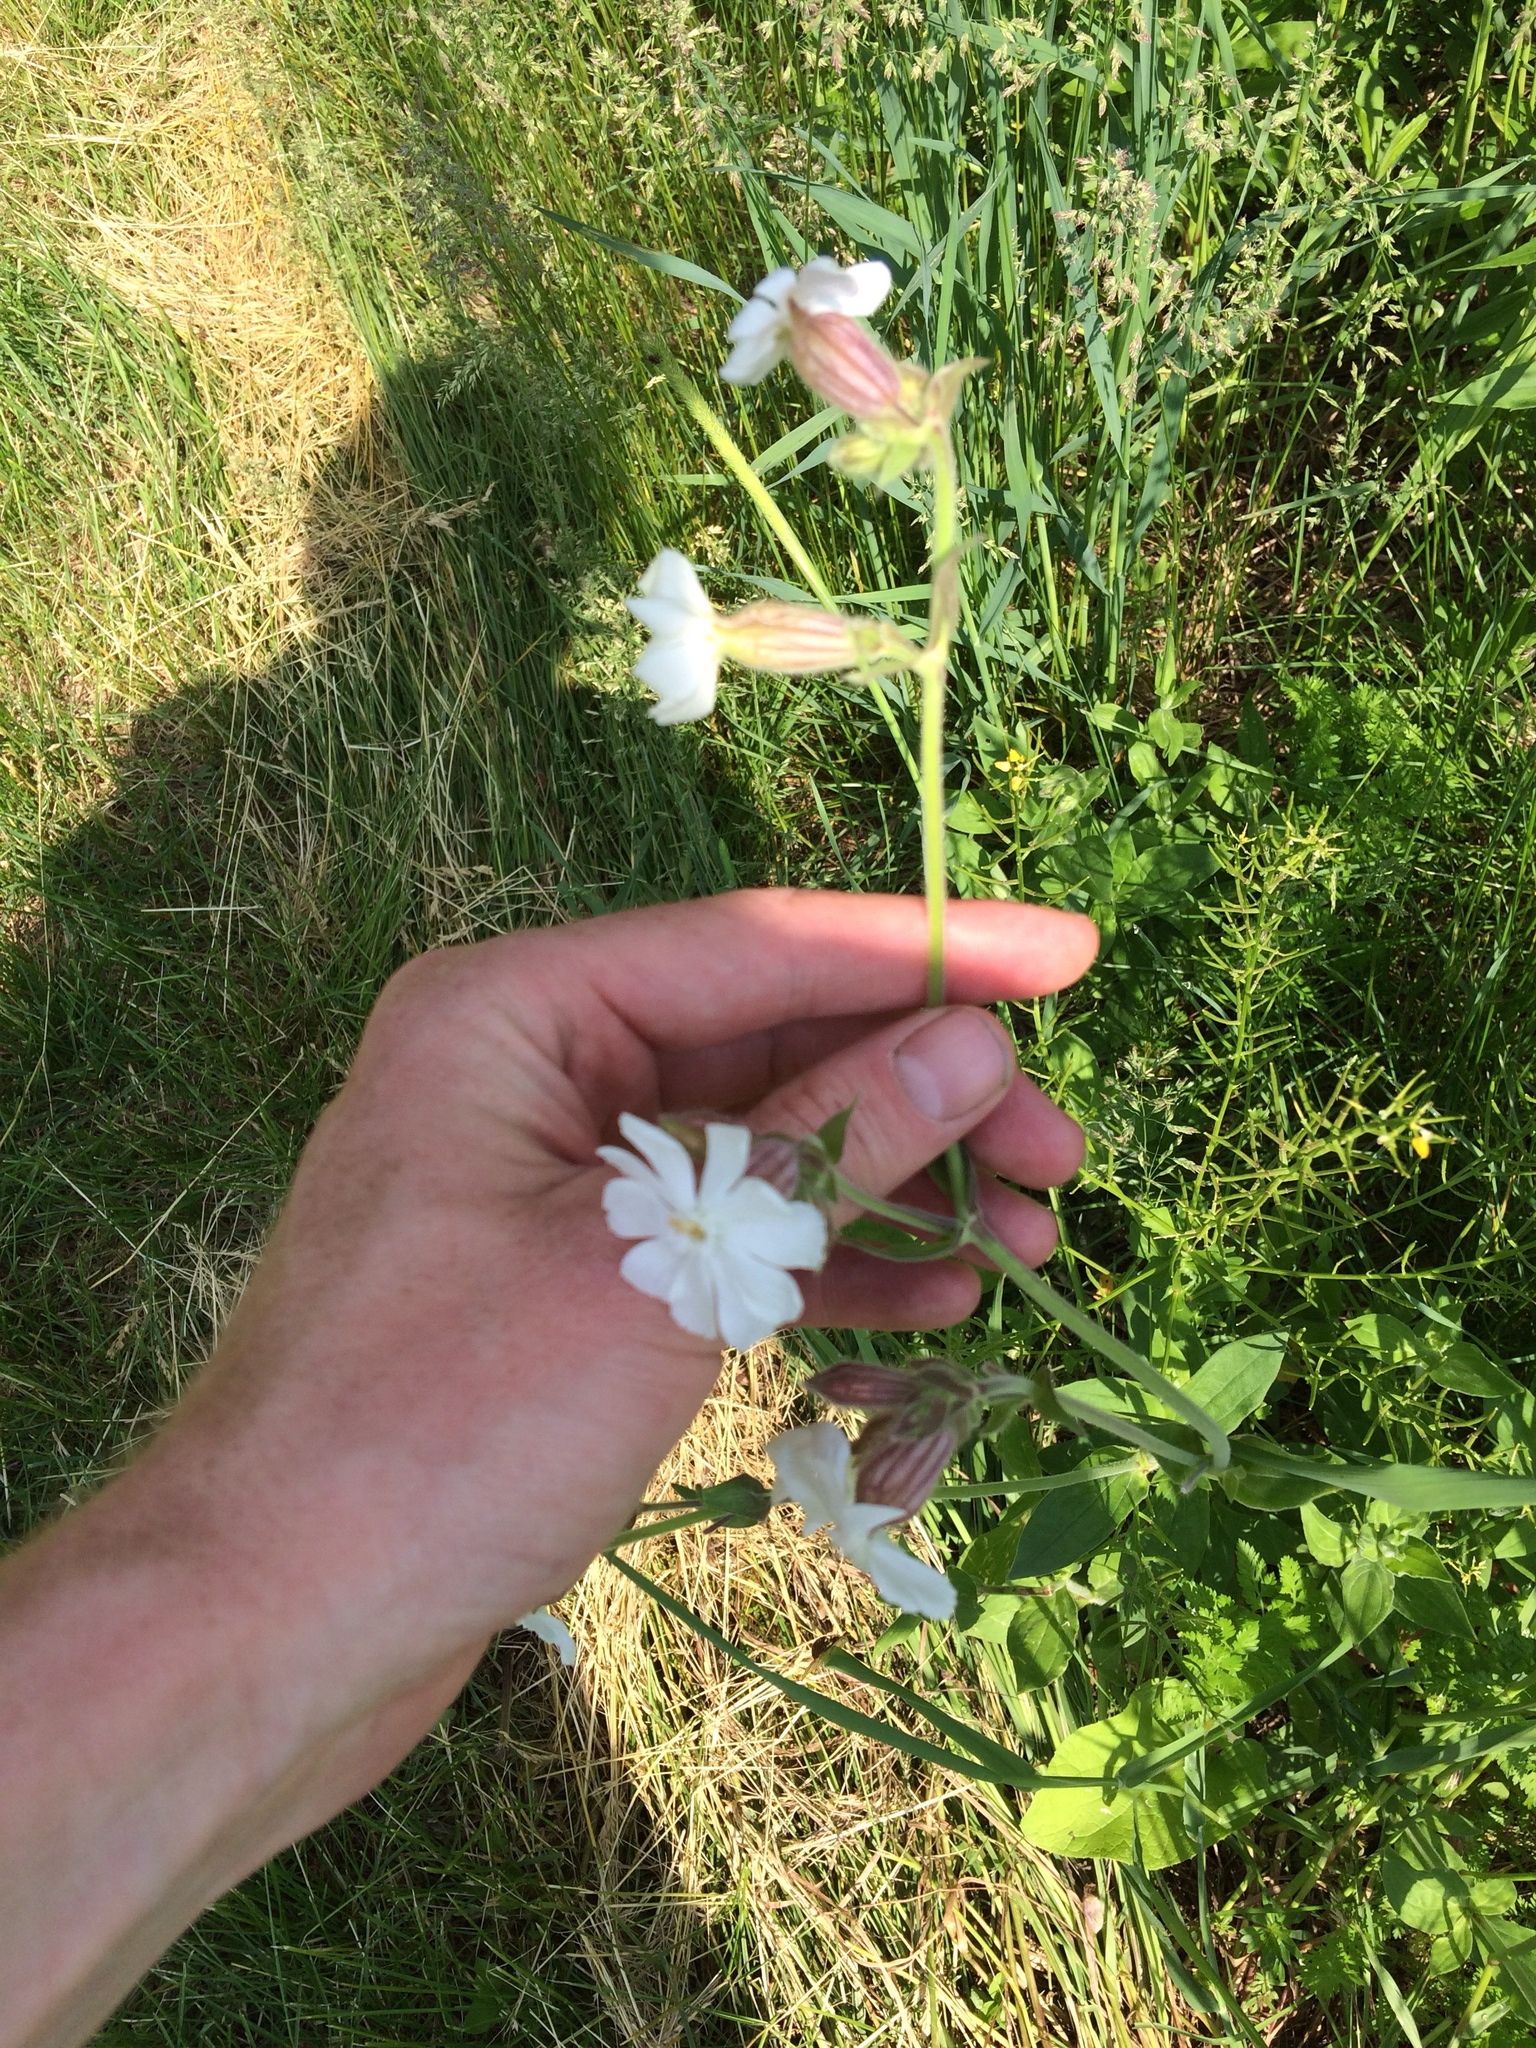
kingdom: Plantae
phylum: Tracheophyta
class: Magnoliopsida
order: Caryophyllales
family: Caryophyllaceae
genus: Silene
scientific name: Silene latifolia
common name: White campion
